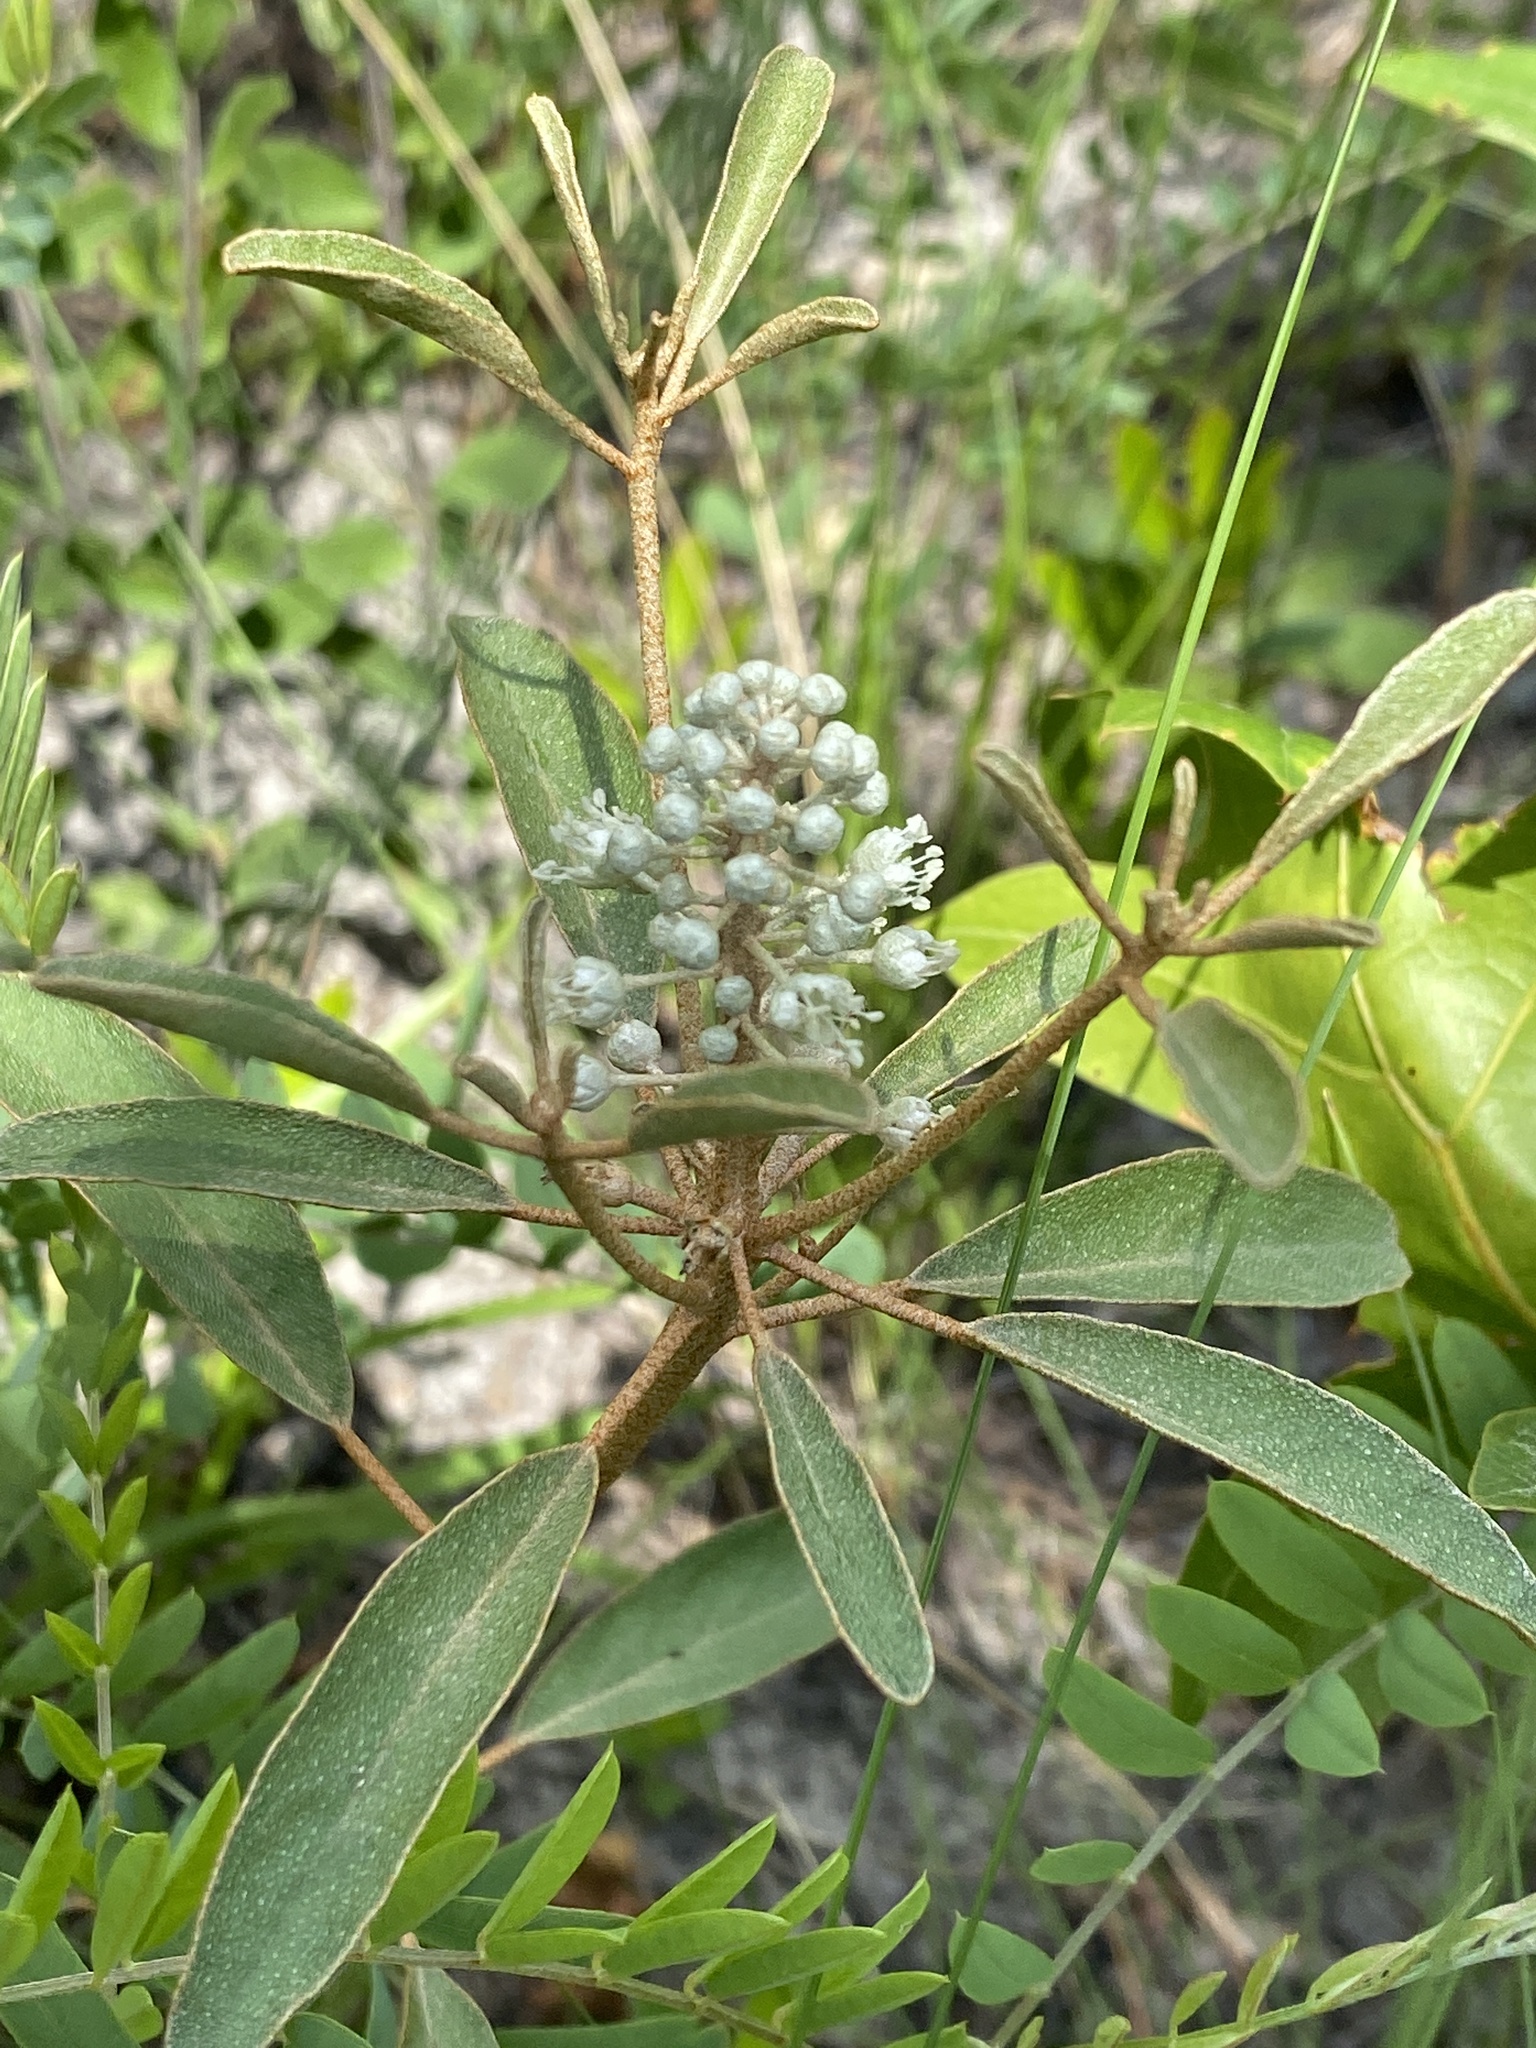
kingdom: Plantae
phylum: Tracheophyta
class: Magnoliopsida
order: Malpighiales
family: Euphorbiaceae
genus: Croton
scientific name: Croton argyranthemus
